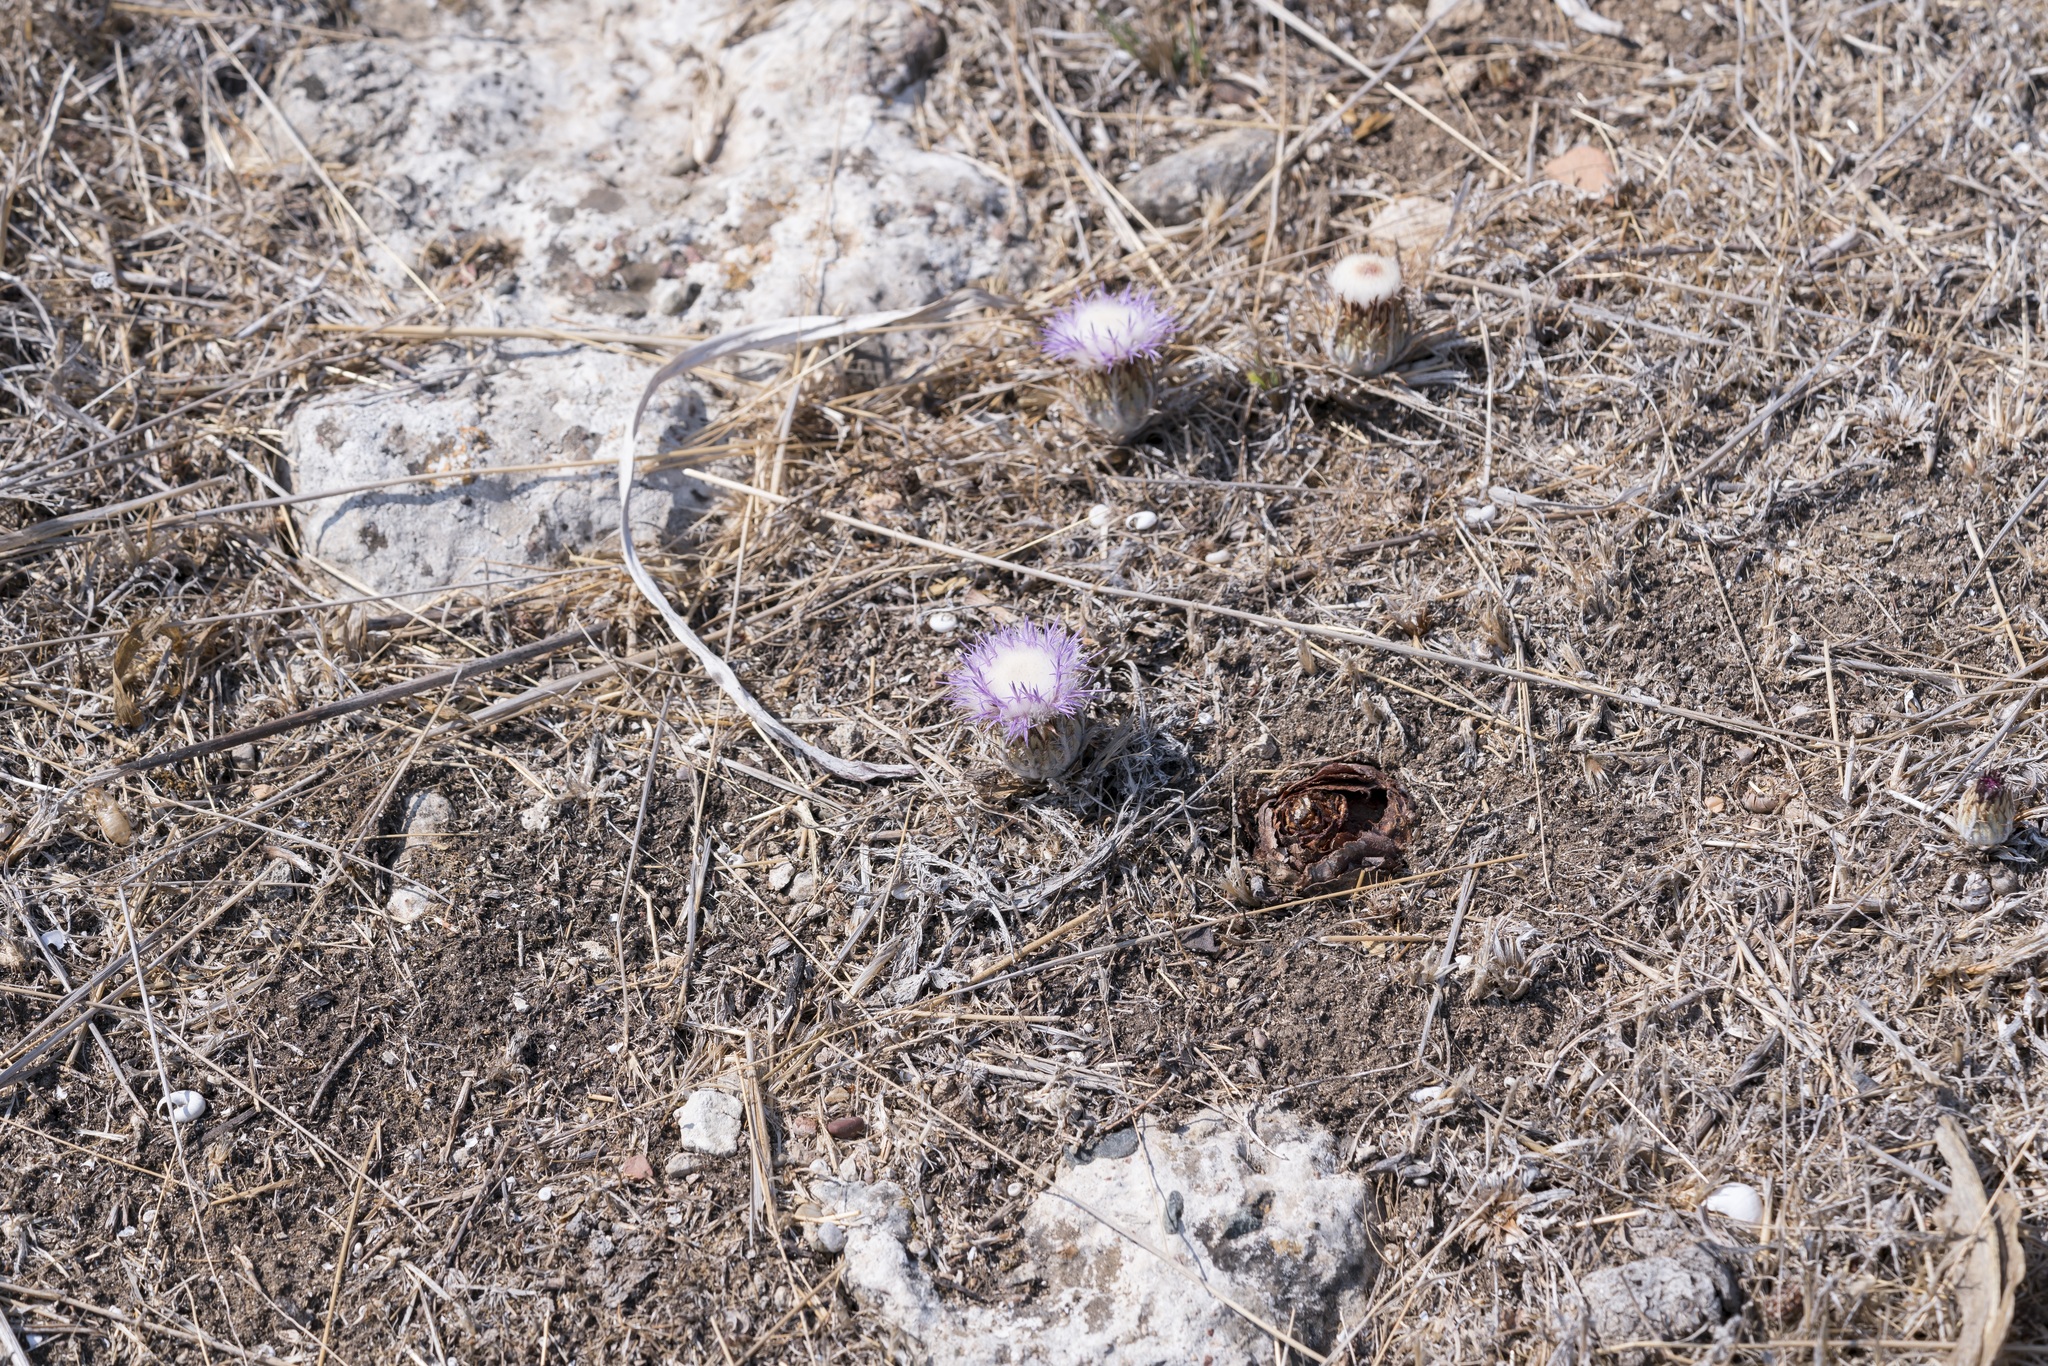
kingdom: Plantae
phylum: Tracheophyta
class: Magnoliopsida
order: Asterales
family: Asteraceae
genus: Chamaeleon
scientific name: Chamaeleon gummifer
